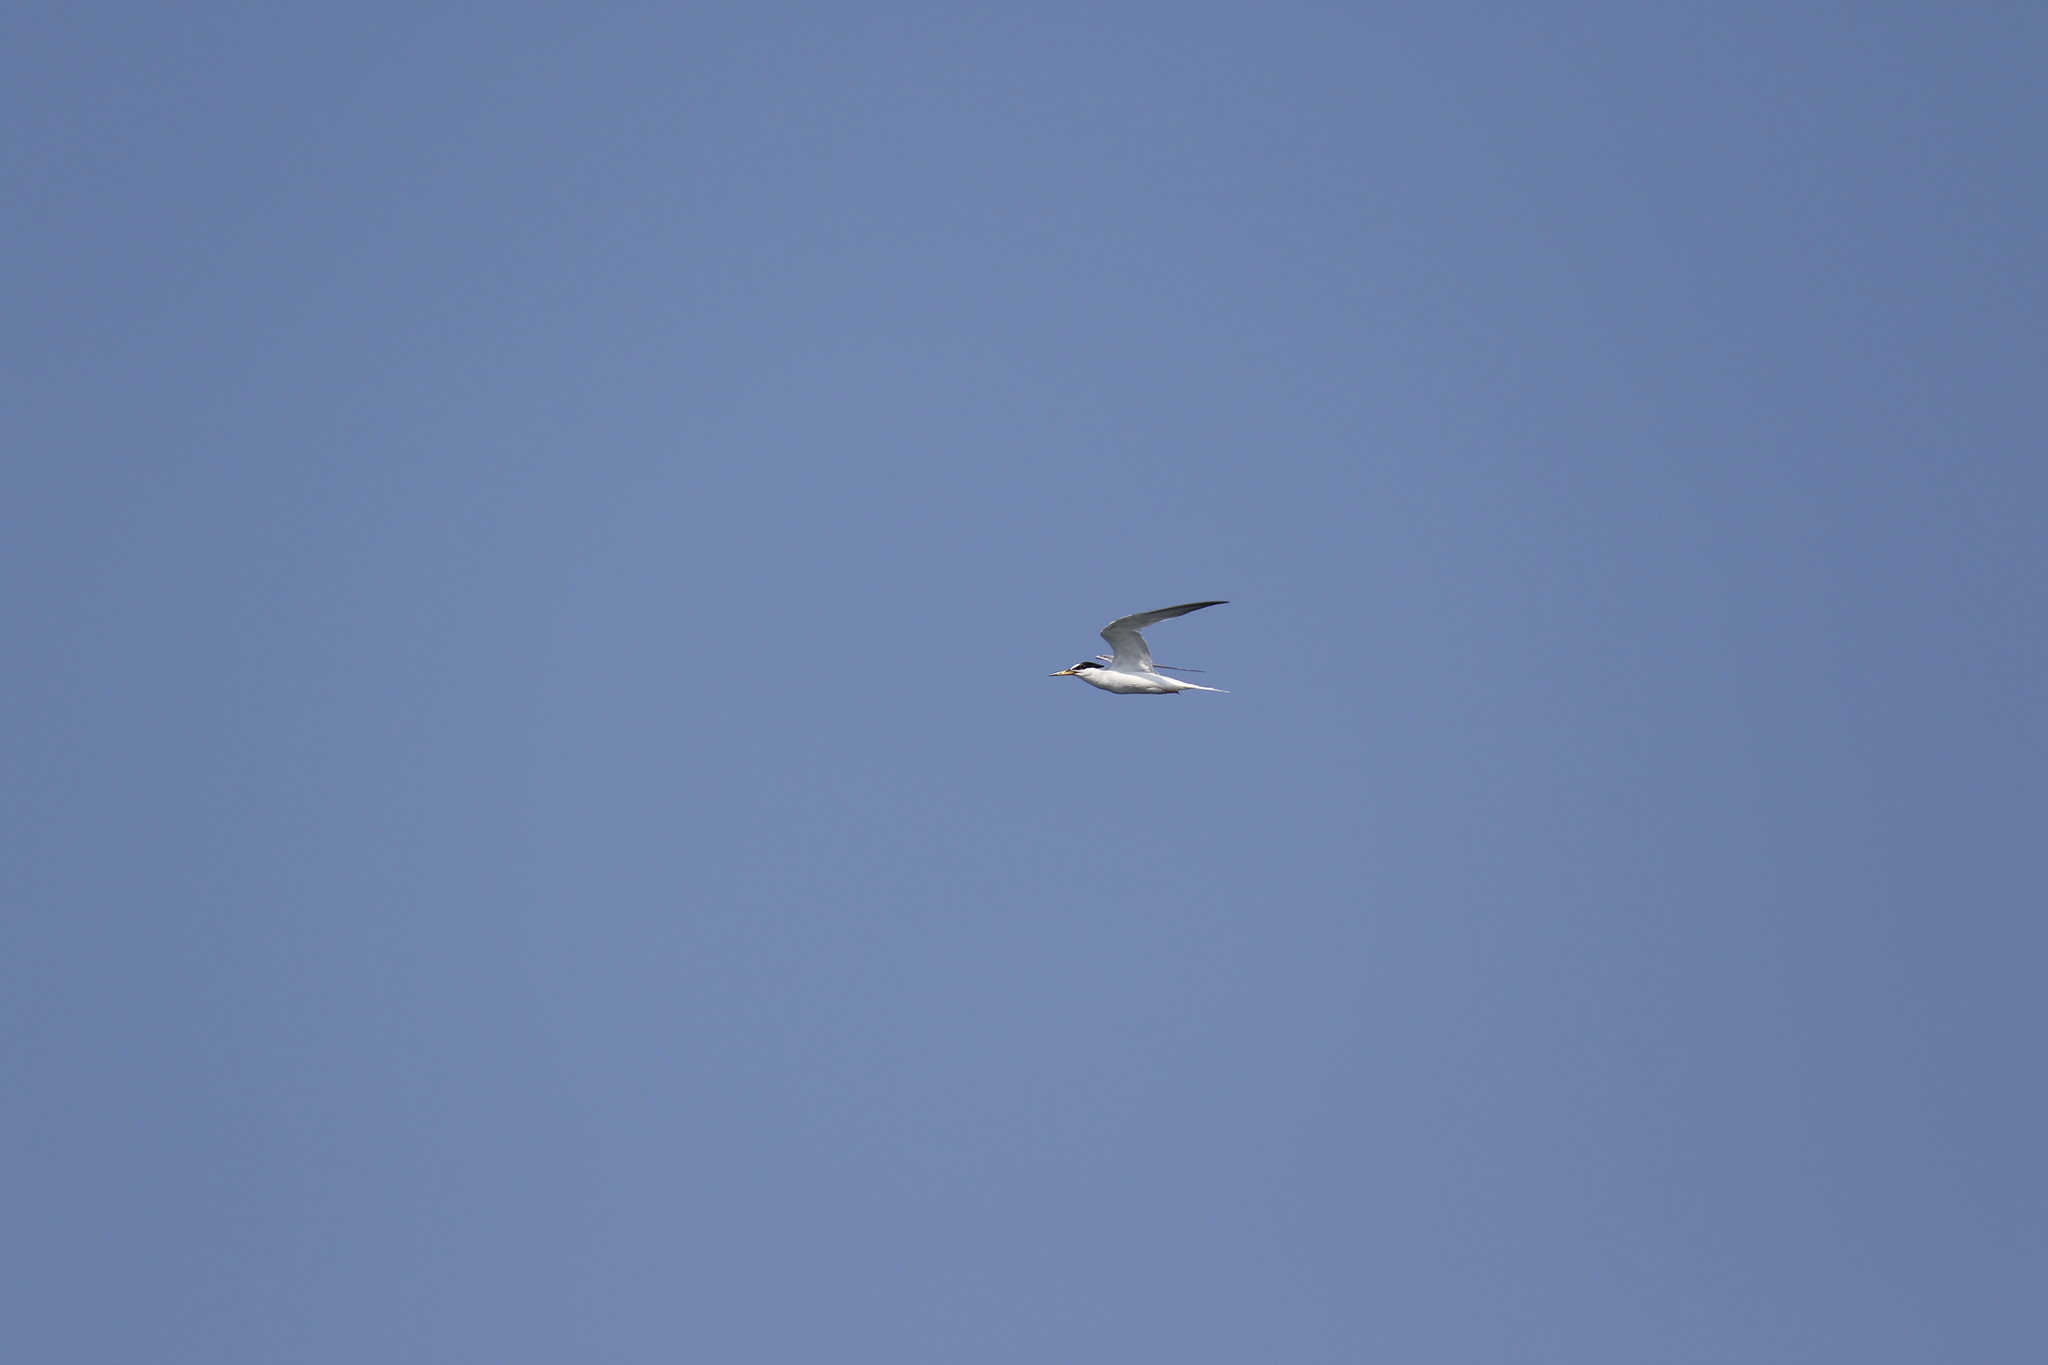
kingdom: Animalia
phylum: Chordata
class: Aves
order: Charadriiformes
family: Laridae
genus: Sternula
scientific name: Sternula albifrons
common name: Little tern
